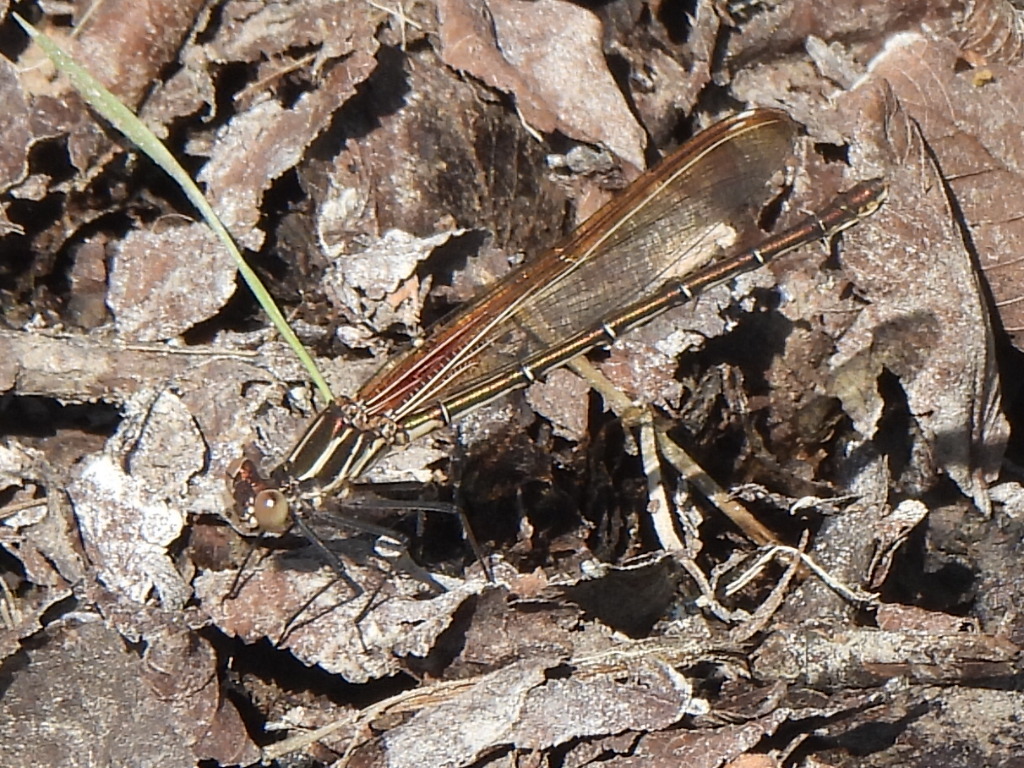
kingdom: Animalia
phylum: Arthropoda
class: Insecta
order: Odonata
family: Calopterygidae
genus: Hetaerina
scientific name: Hetaerina americana
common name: American rubyspot
